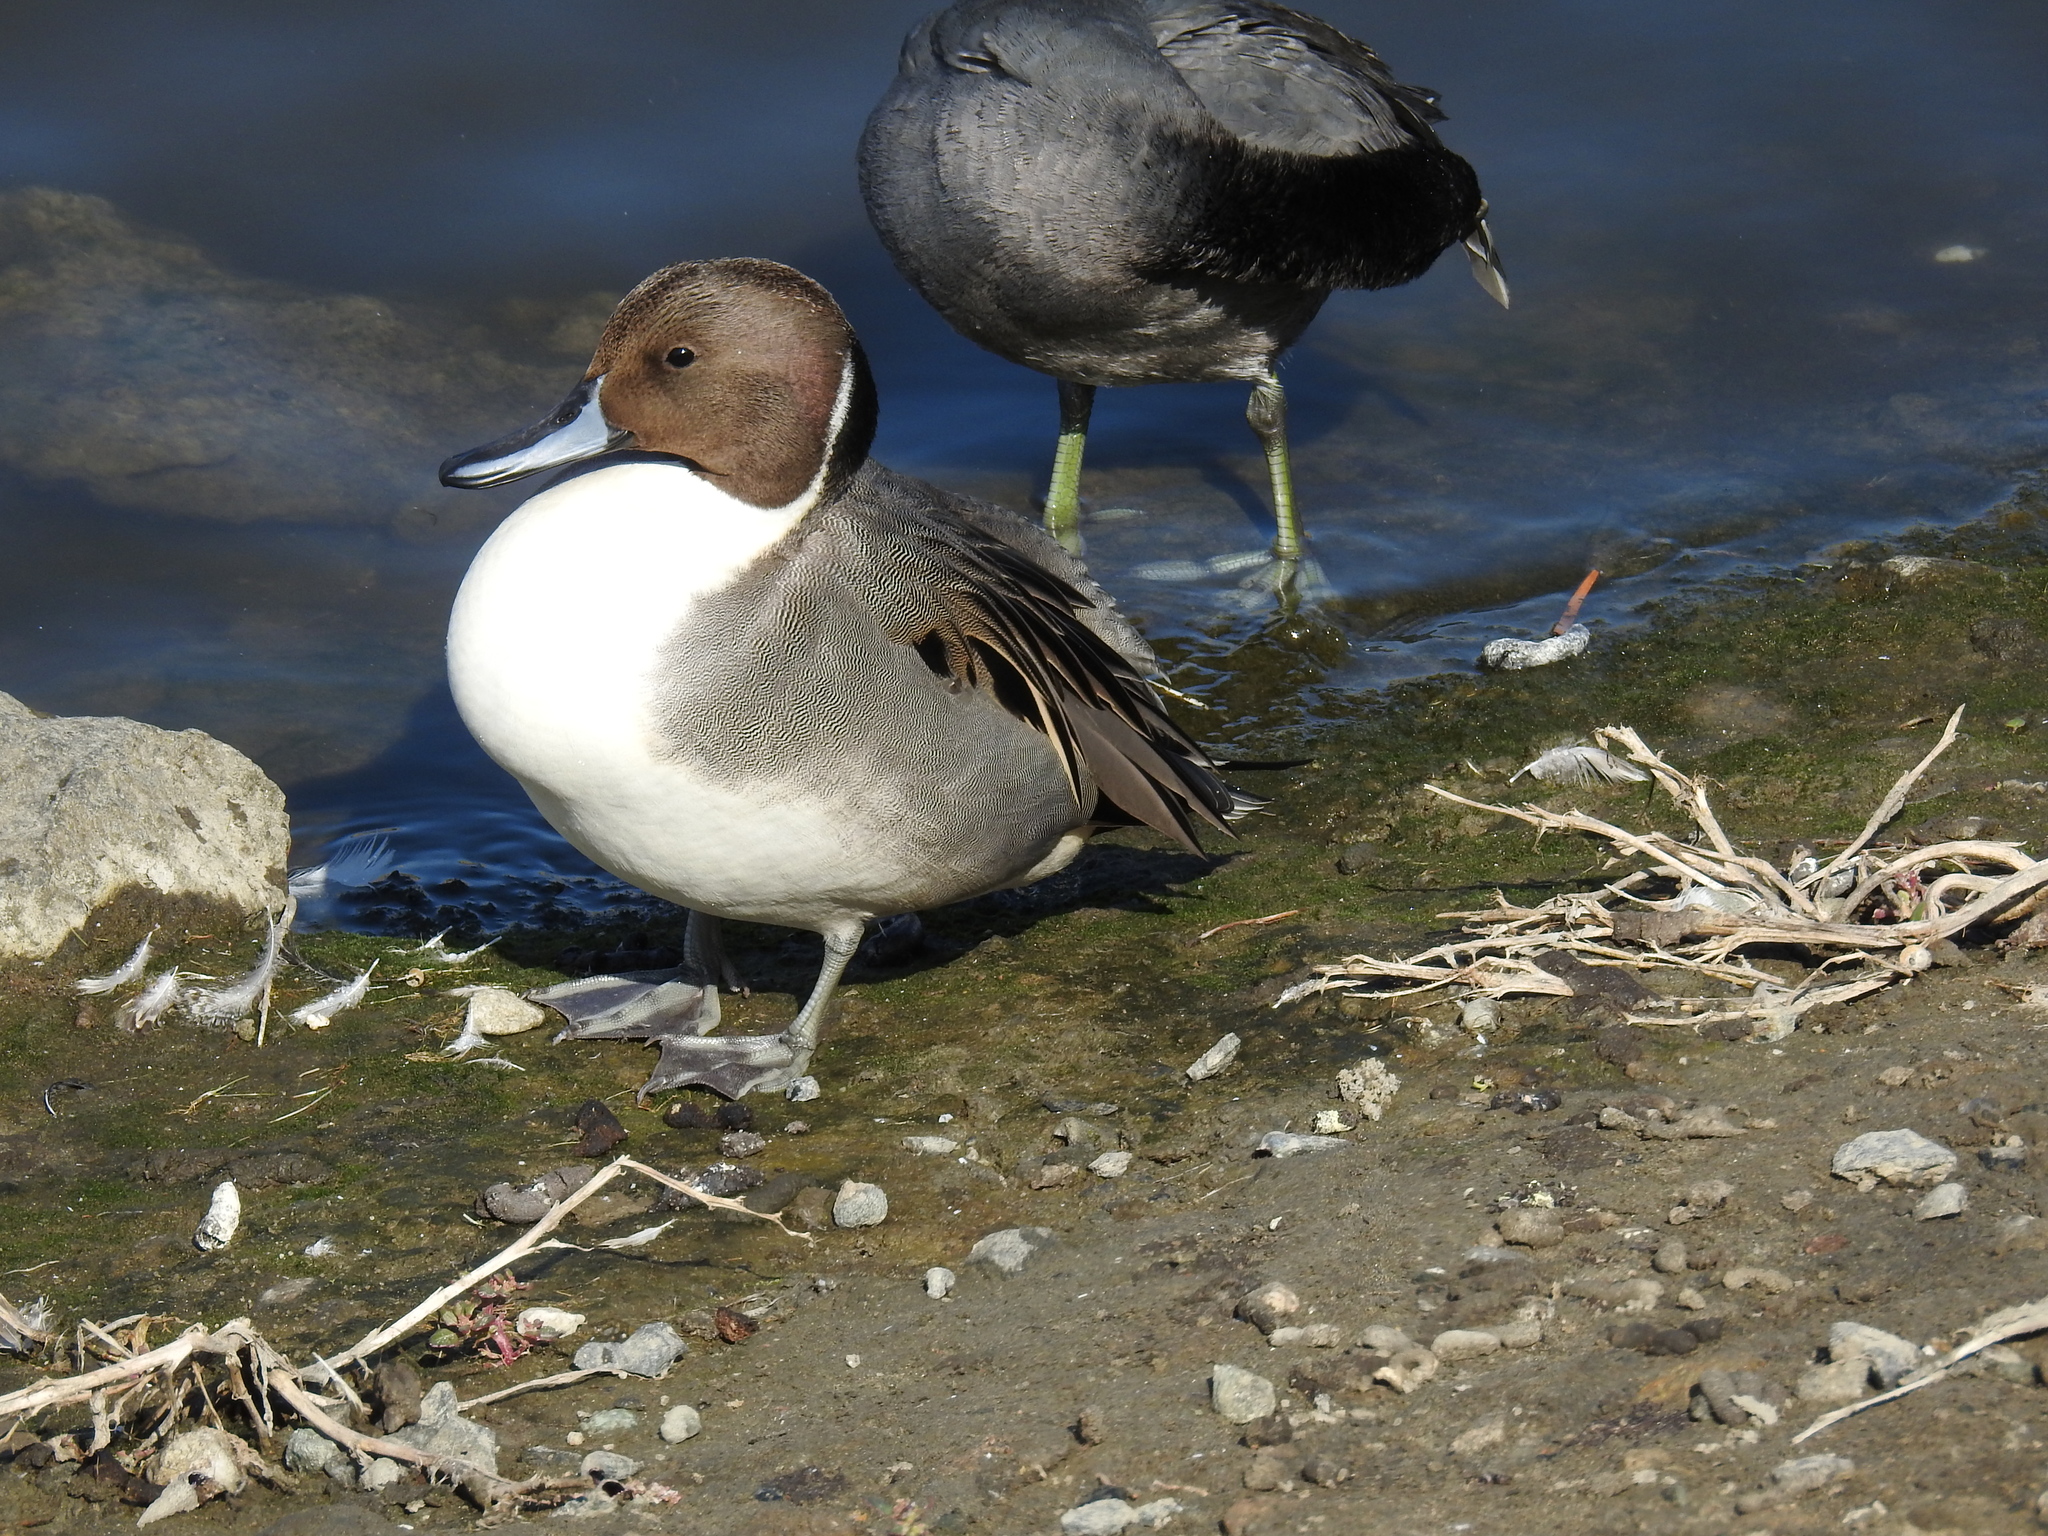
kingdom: Animalia
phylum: Chordata
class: Aves
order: Anseriformes
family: Anatidae
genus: Anas
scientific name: Anas acuta
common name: Northern pintail
